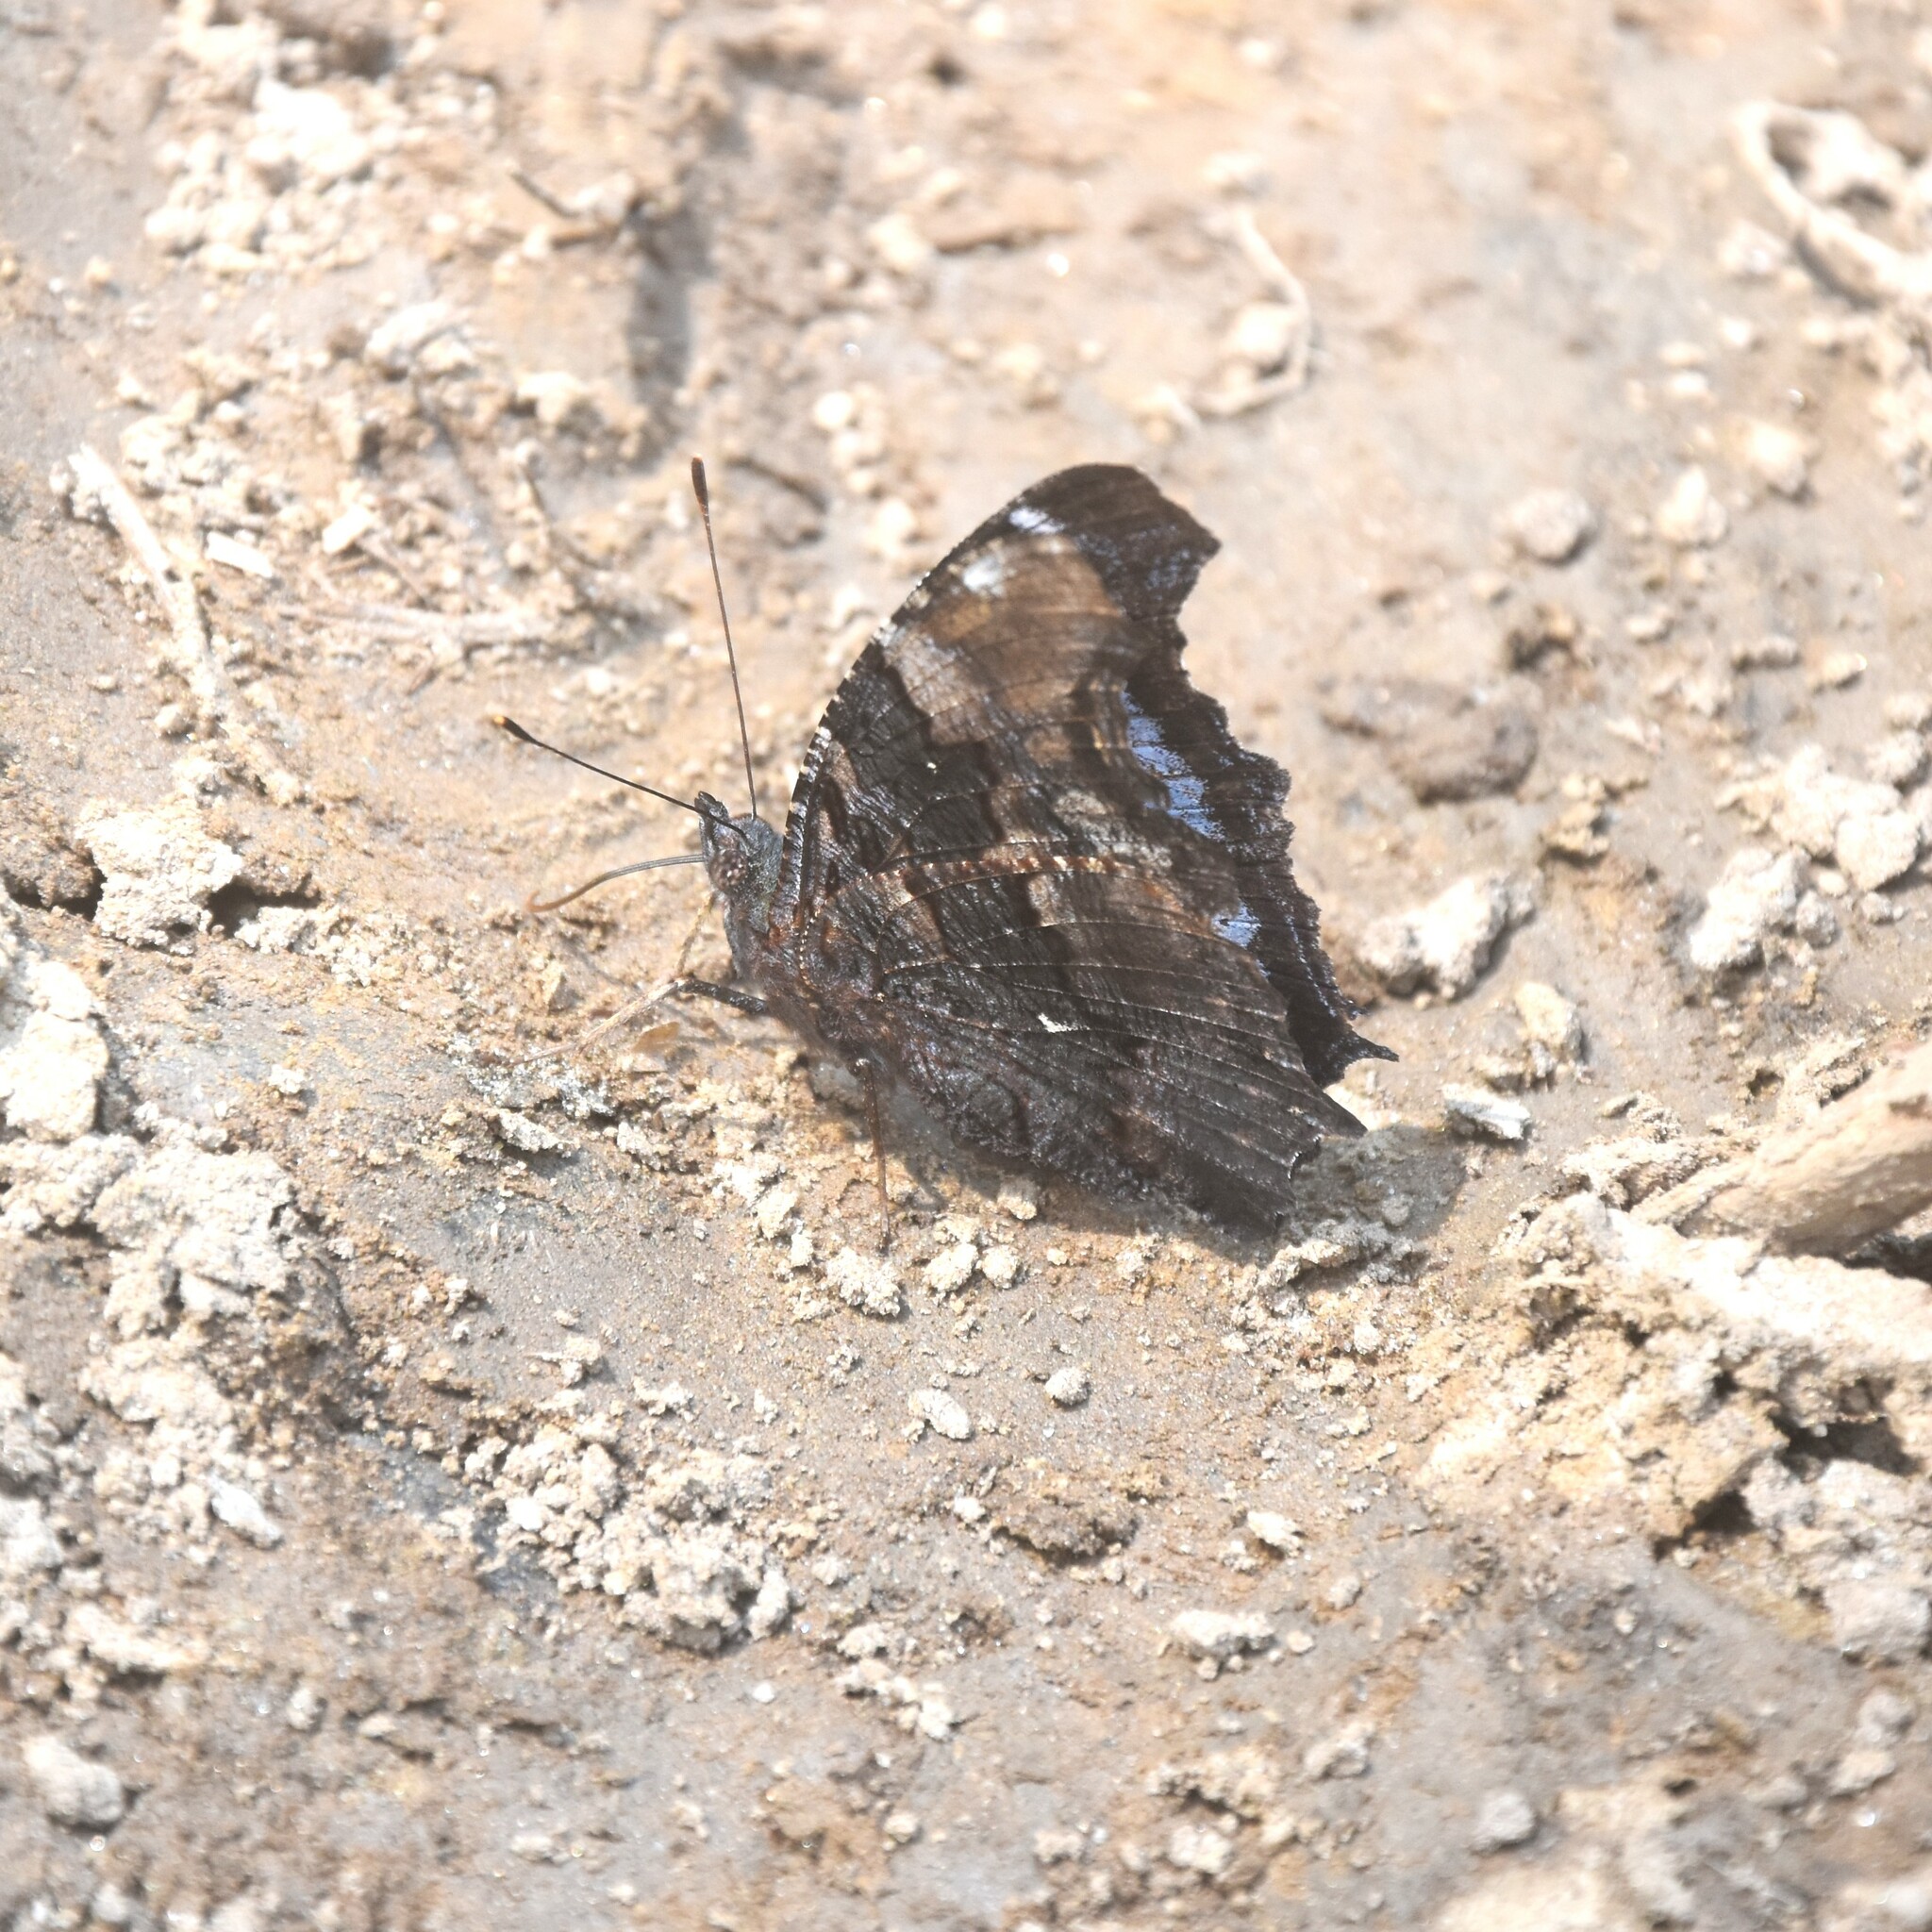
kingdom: Animalia
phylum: Arthropoda
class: Insecta
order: Lepidoptera
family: Nymphalidae
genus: Vanessa
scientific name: Vanessa Kaniska canace
